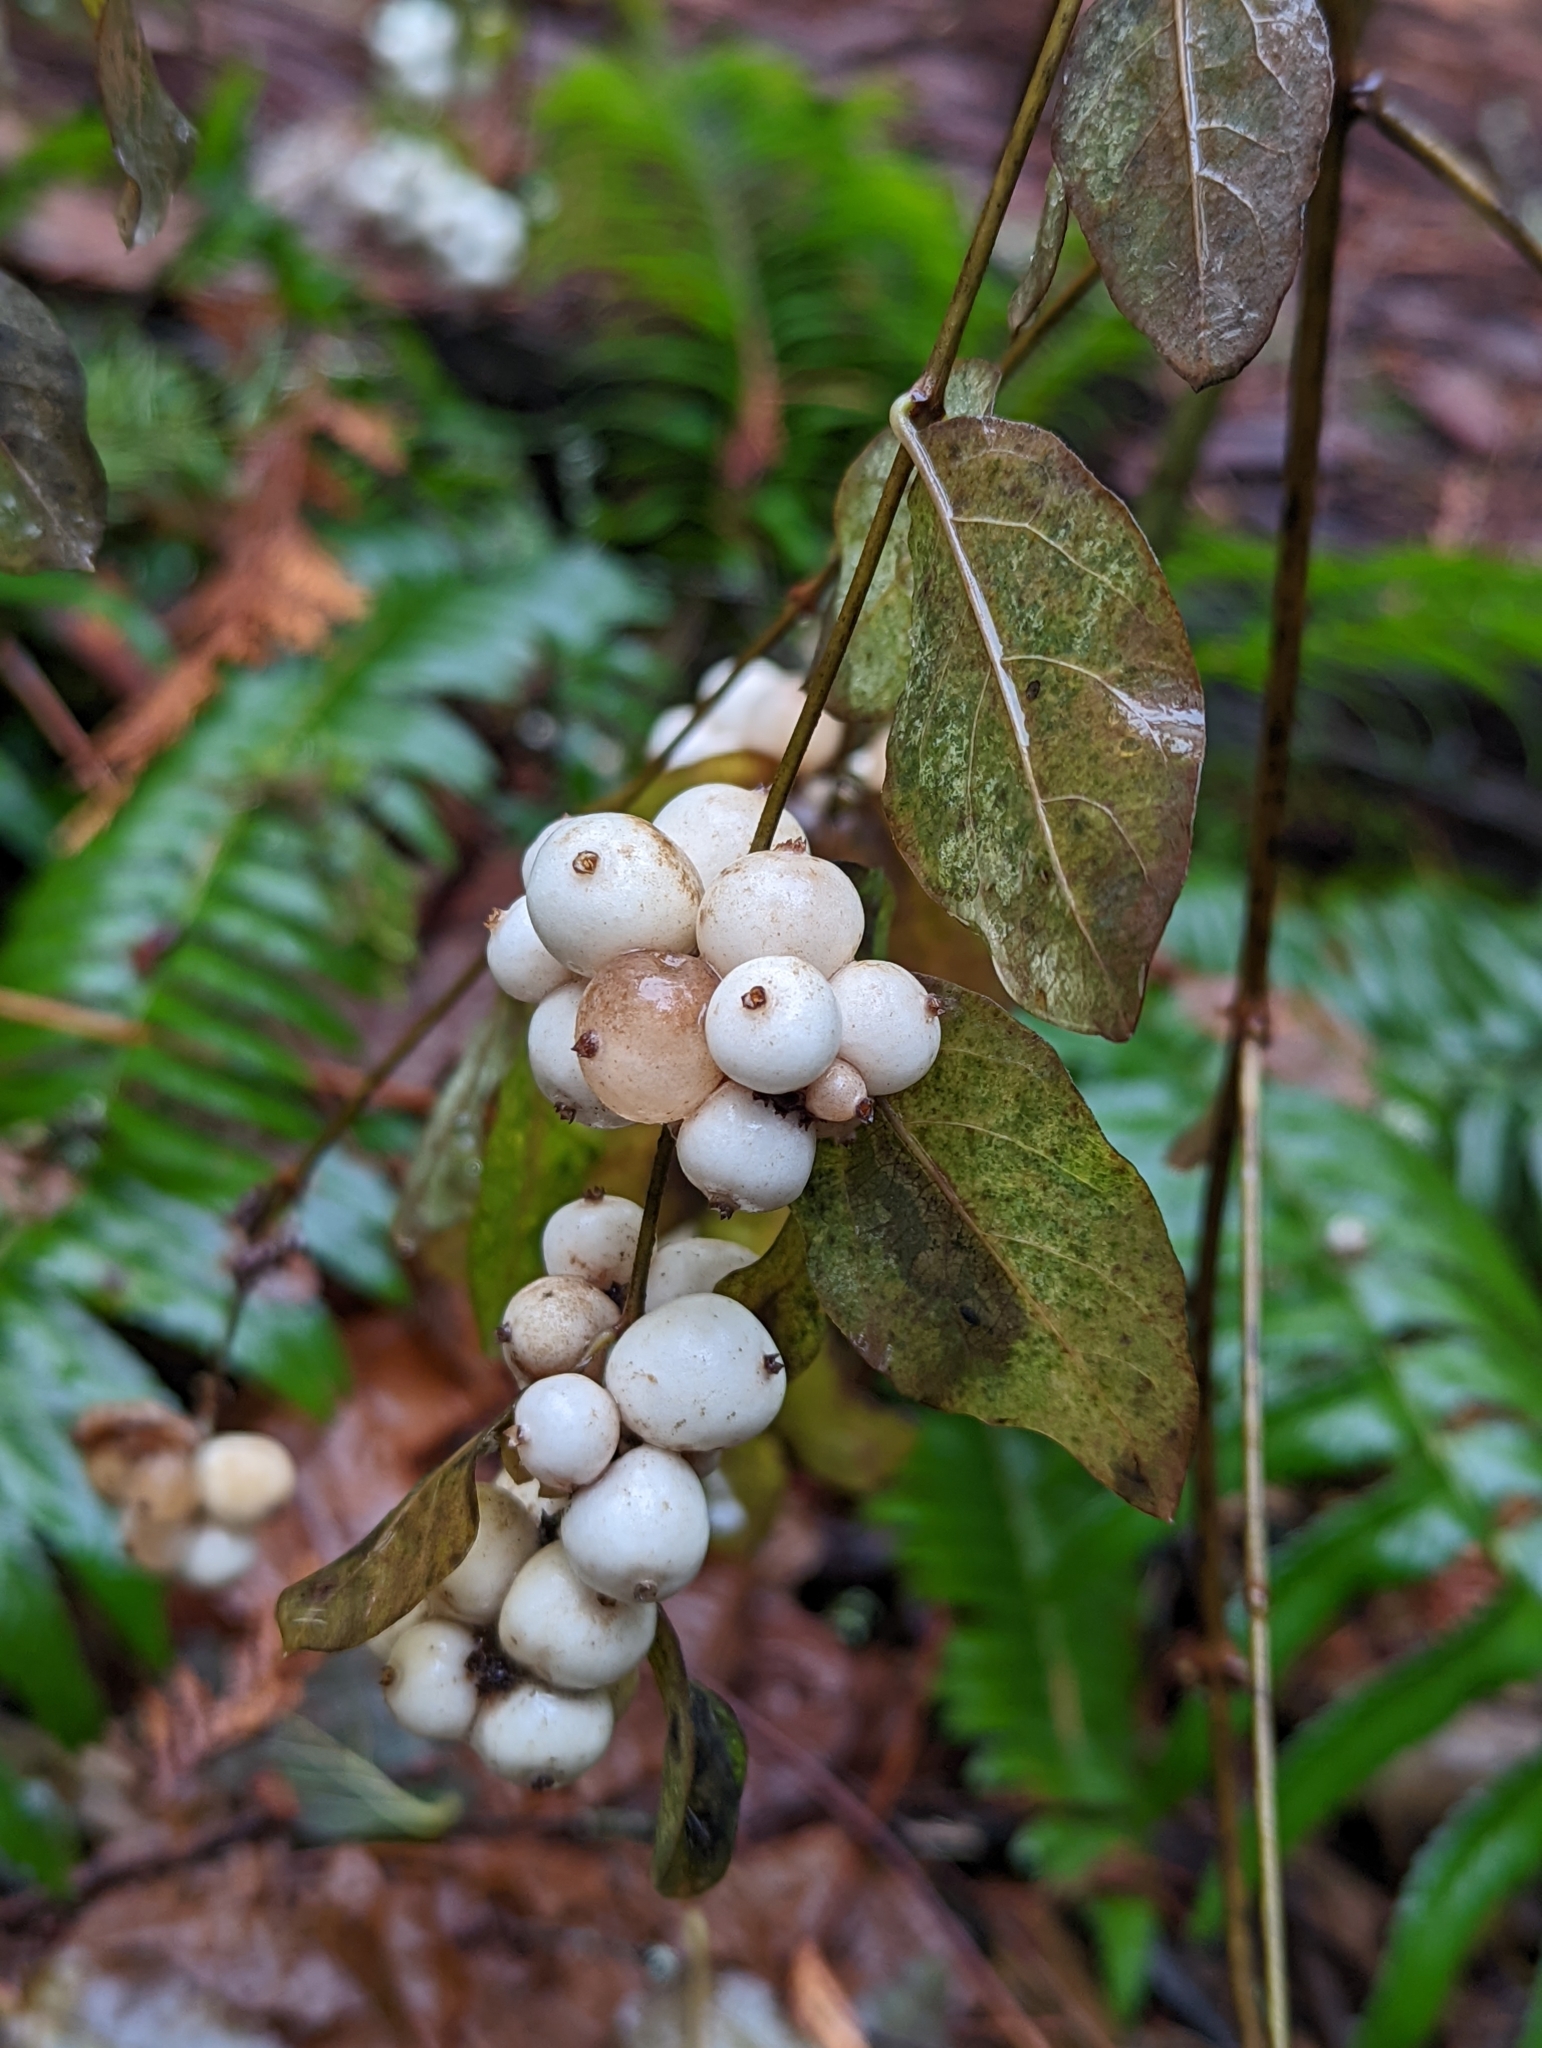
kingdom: Plantae
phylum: Tracheophyta
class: Magnoliopsida
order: Dipsacales
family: Caprifoliaceae
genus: Symphoricarpos
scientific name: Symphoricarpos albus
